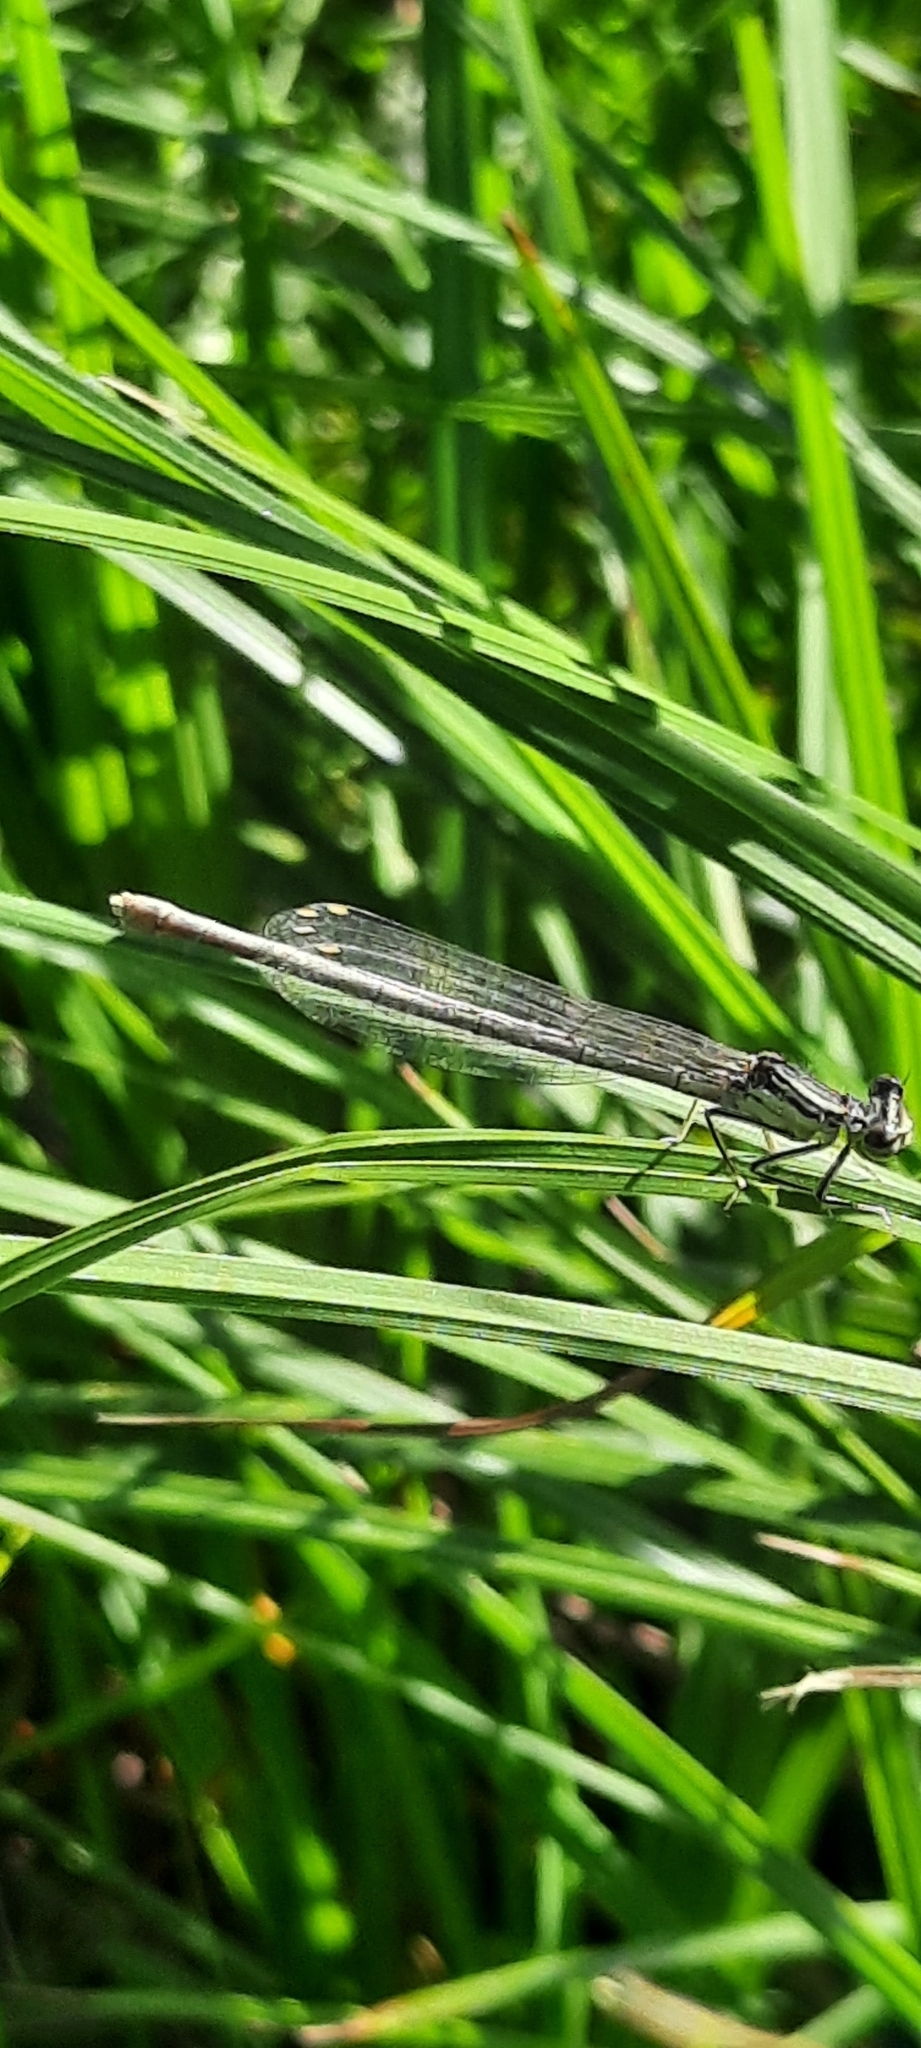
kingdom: Animalia
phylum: Arthropoda
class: Insecta
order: Odonata
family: Platycnemididae
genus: Platycnemis
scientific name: Platycnemis pennipes
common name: White-legged damselfly
